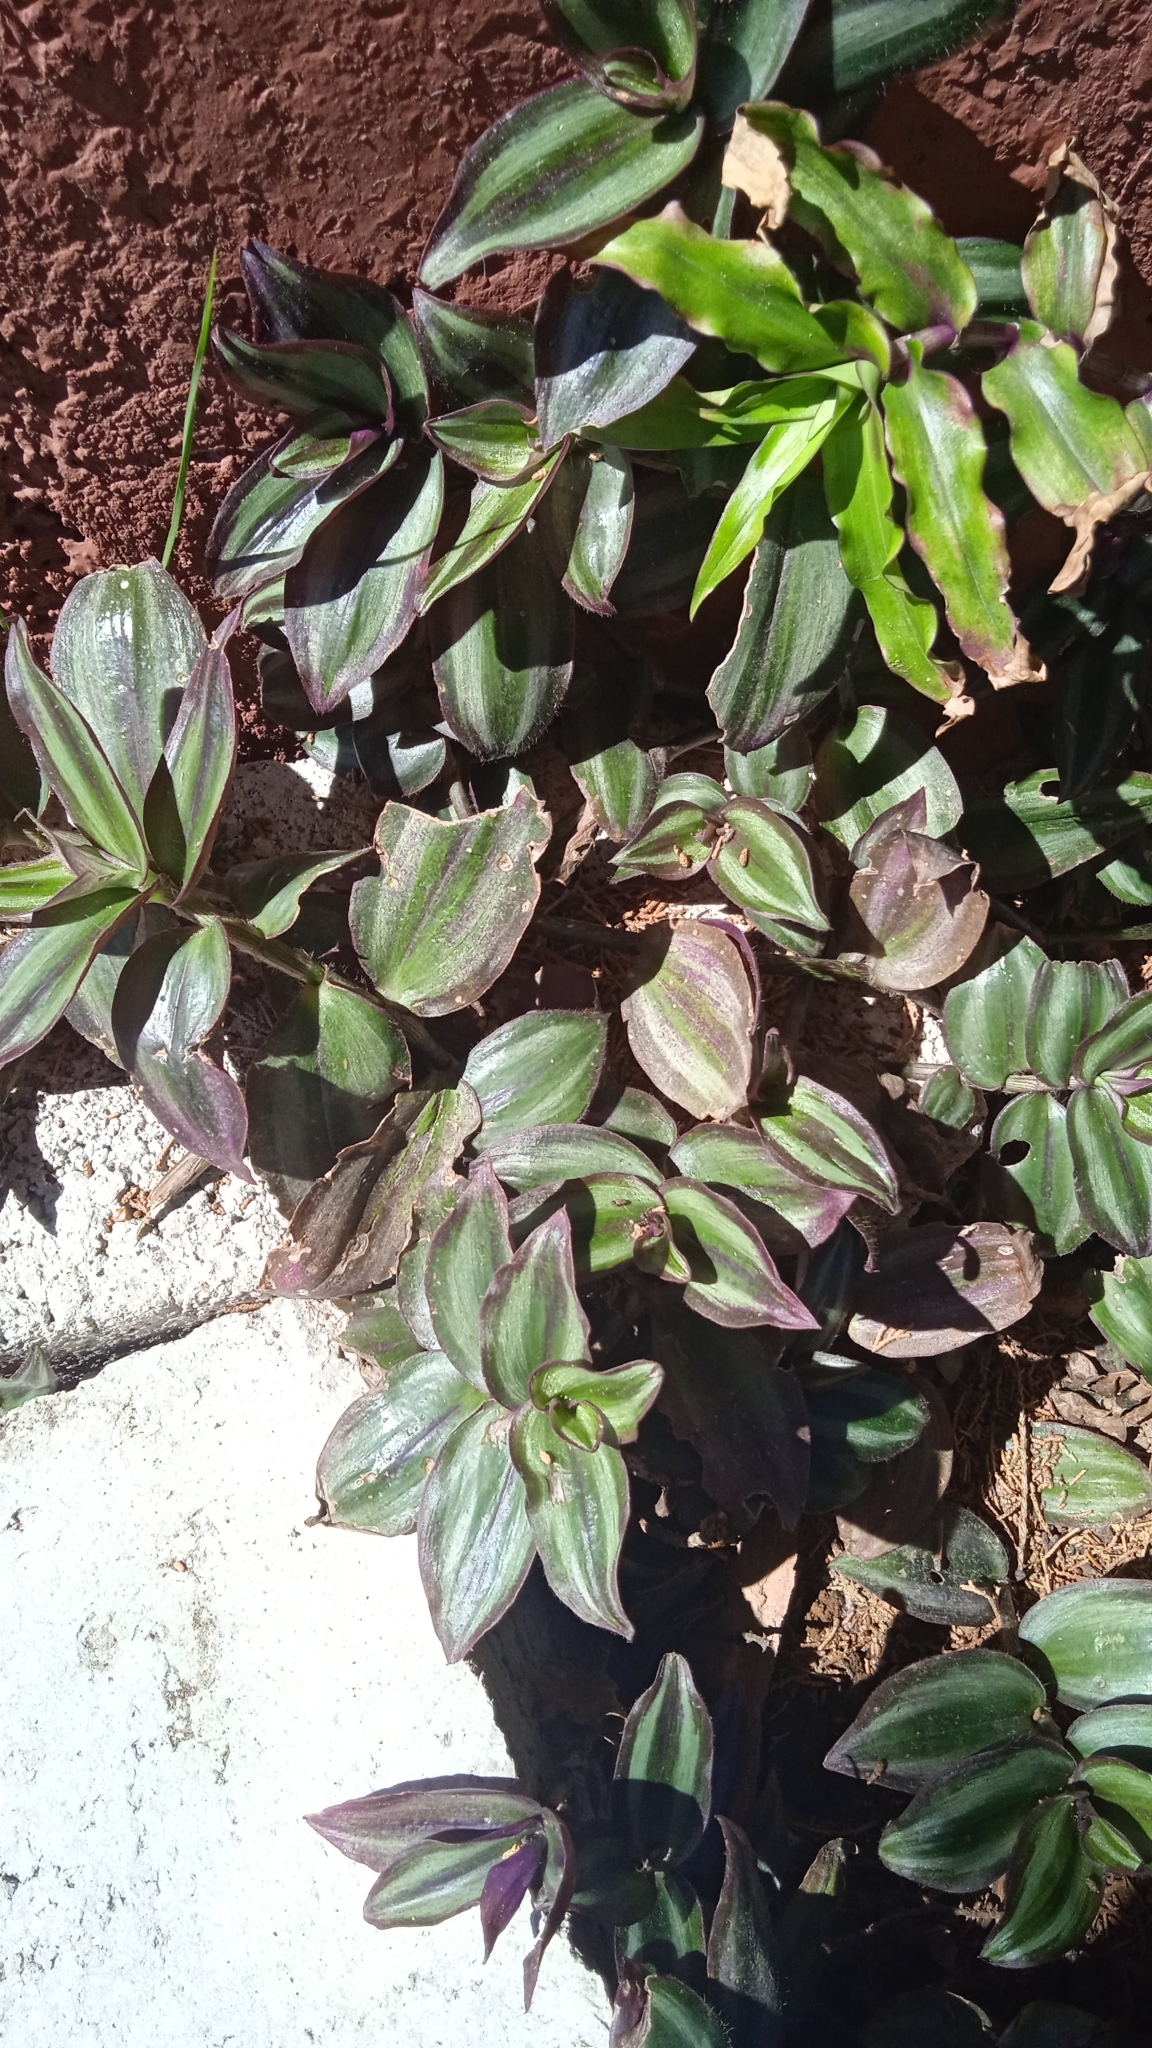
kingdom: Plantae
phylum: Tracheophyta
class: Liliopsida
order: Commelinales
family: Commelinaceae
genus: Tradescantia
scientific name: Tradescantia zebrina
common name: Inchplant
